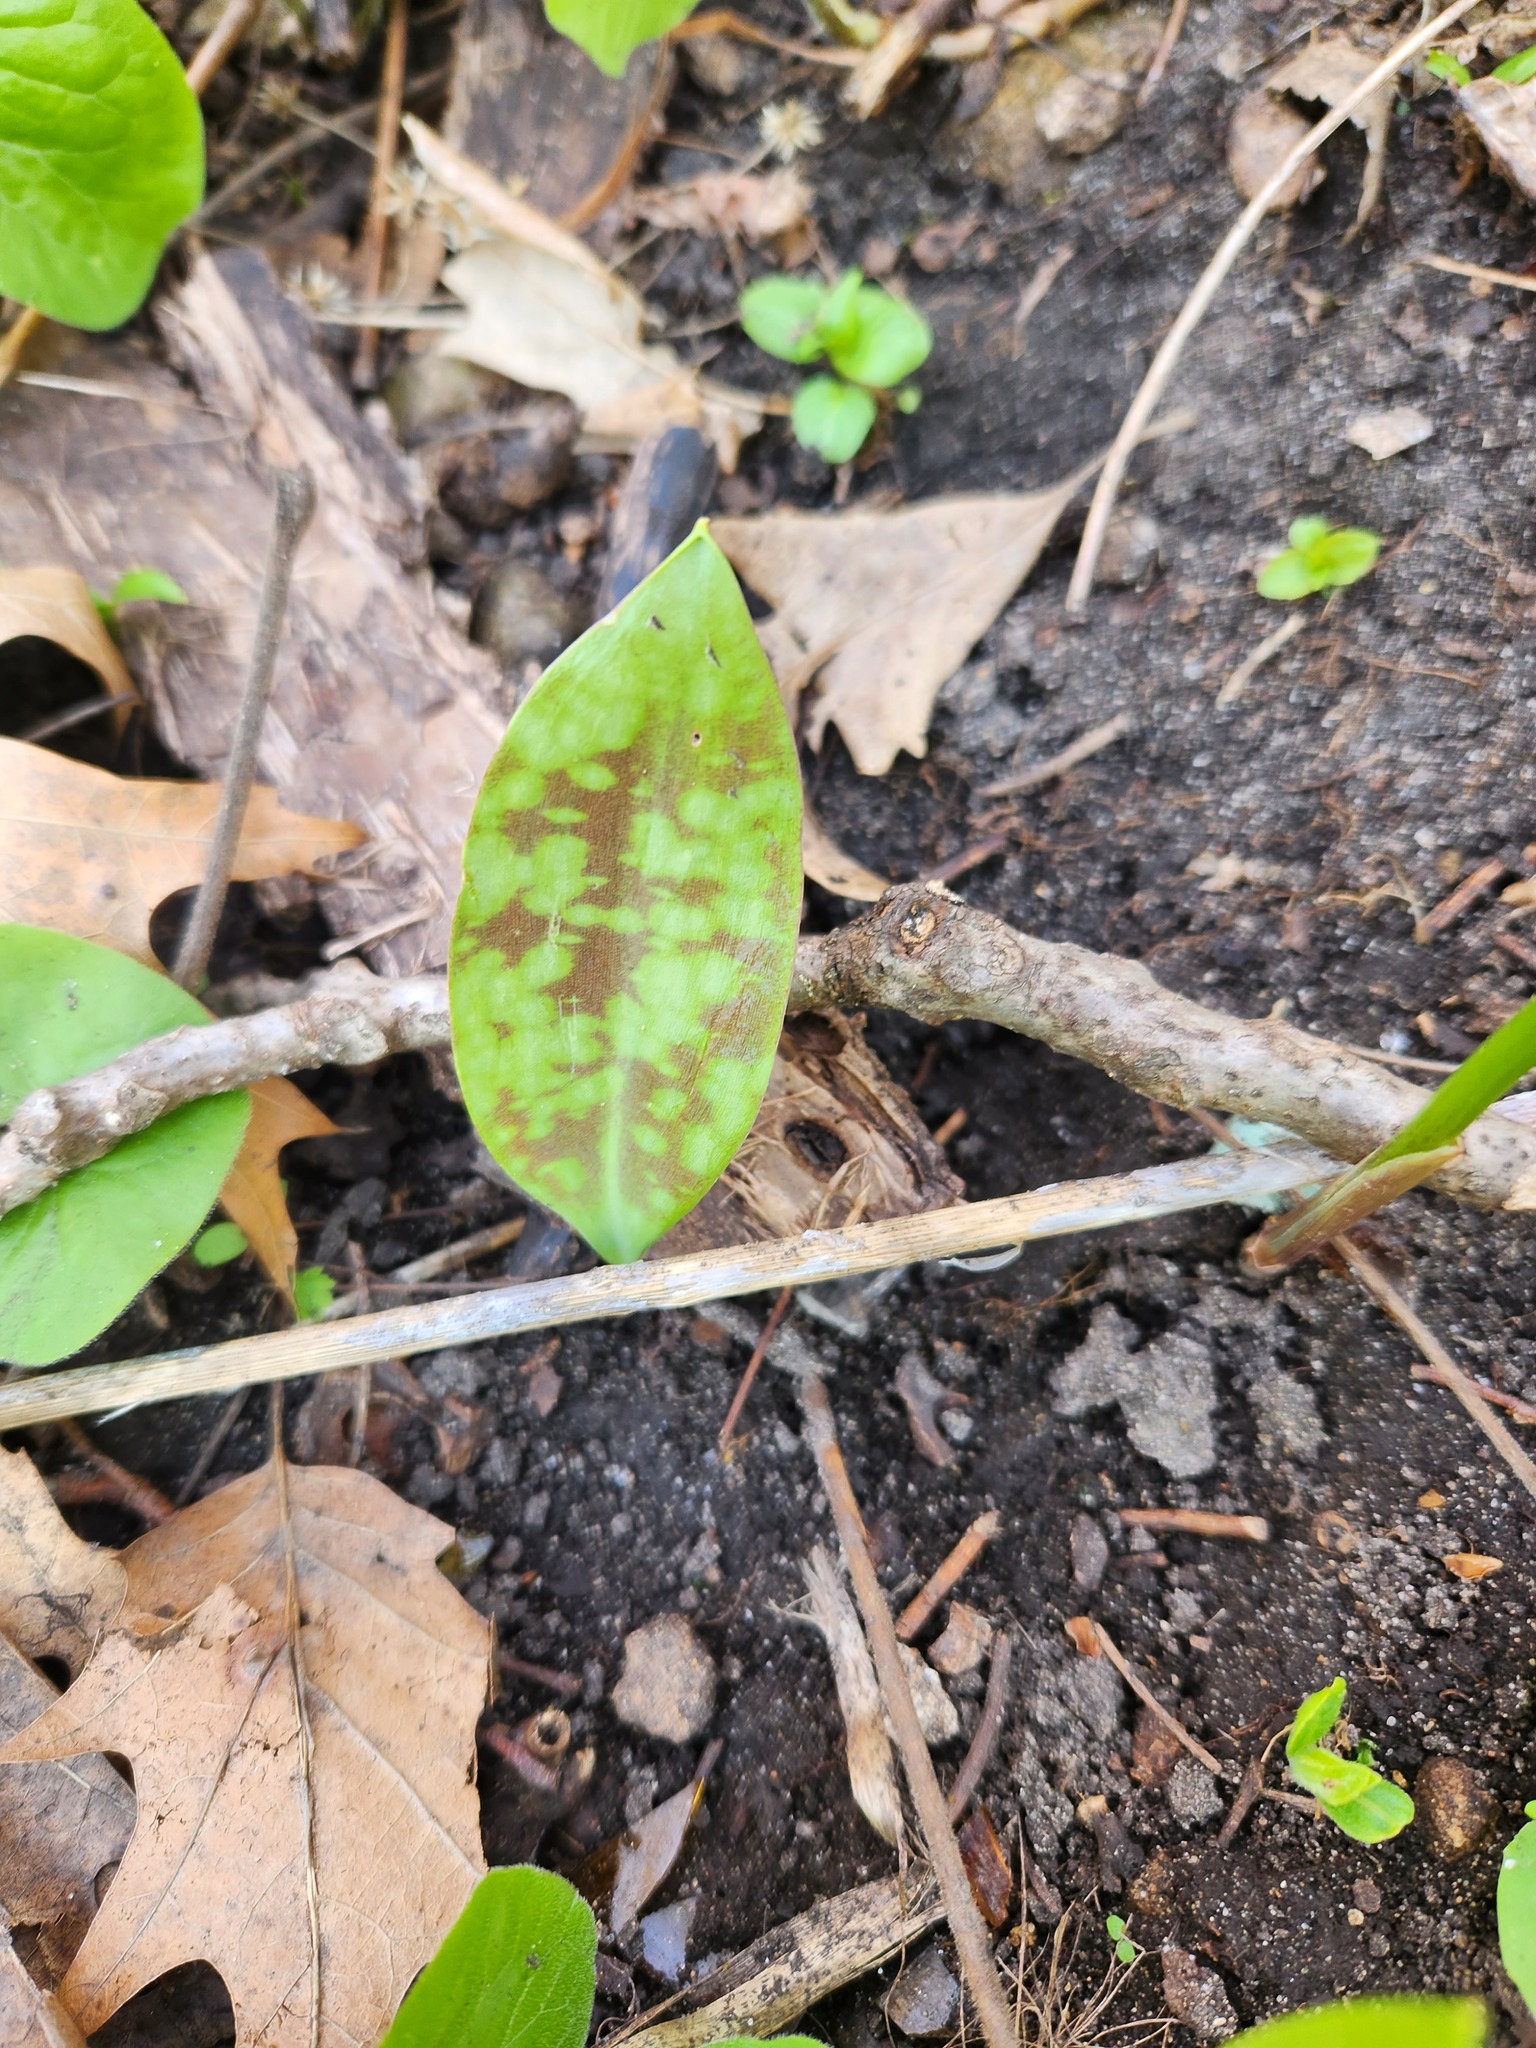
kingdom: Plantae
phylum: Tracheophyta
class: Liliopsida
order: Liliales
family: Liliaceae
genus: Erythronium
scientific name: Erythronium albidum
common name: White trout-lily
